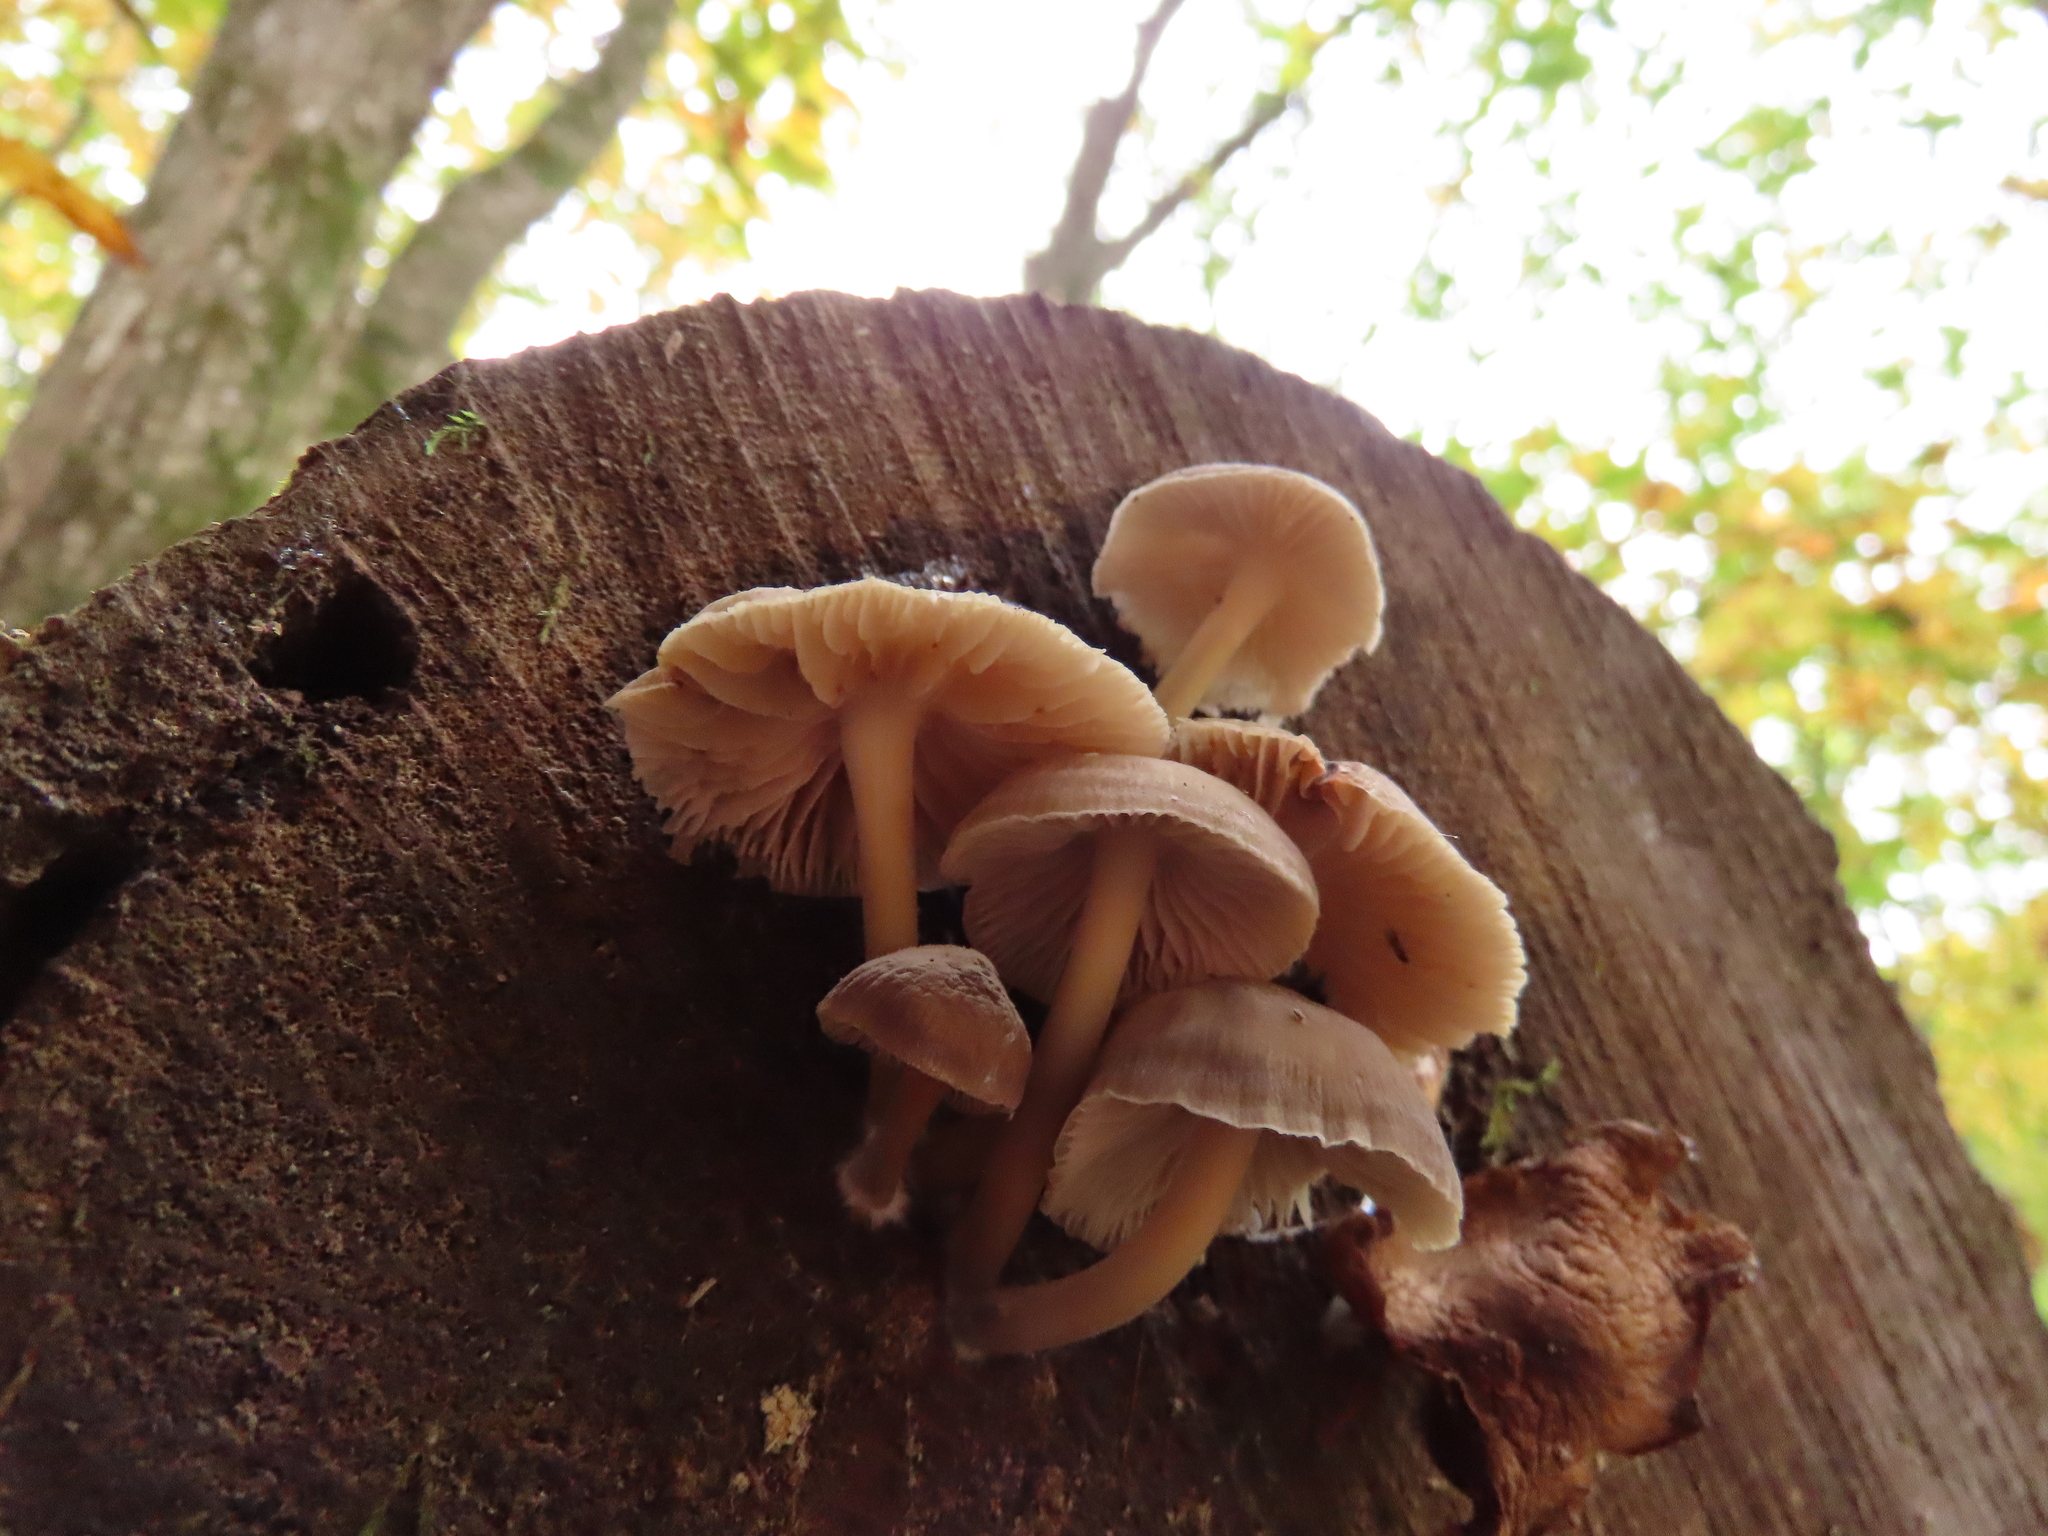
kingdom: Fungi
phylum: Basidiomycota
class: Agaricomycetes
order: Agaricales
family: Mycenaceae
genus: Mycena
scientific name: Mycena inclinata
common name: Clustered bonnet
